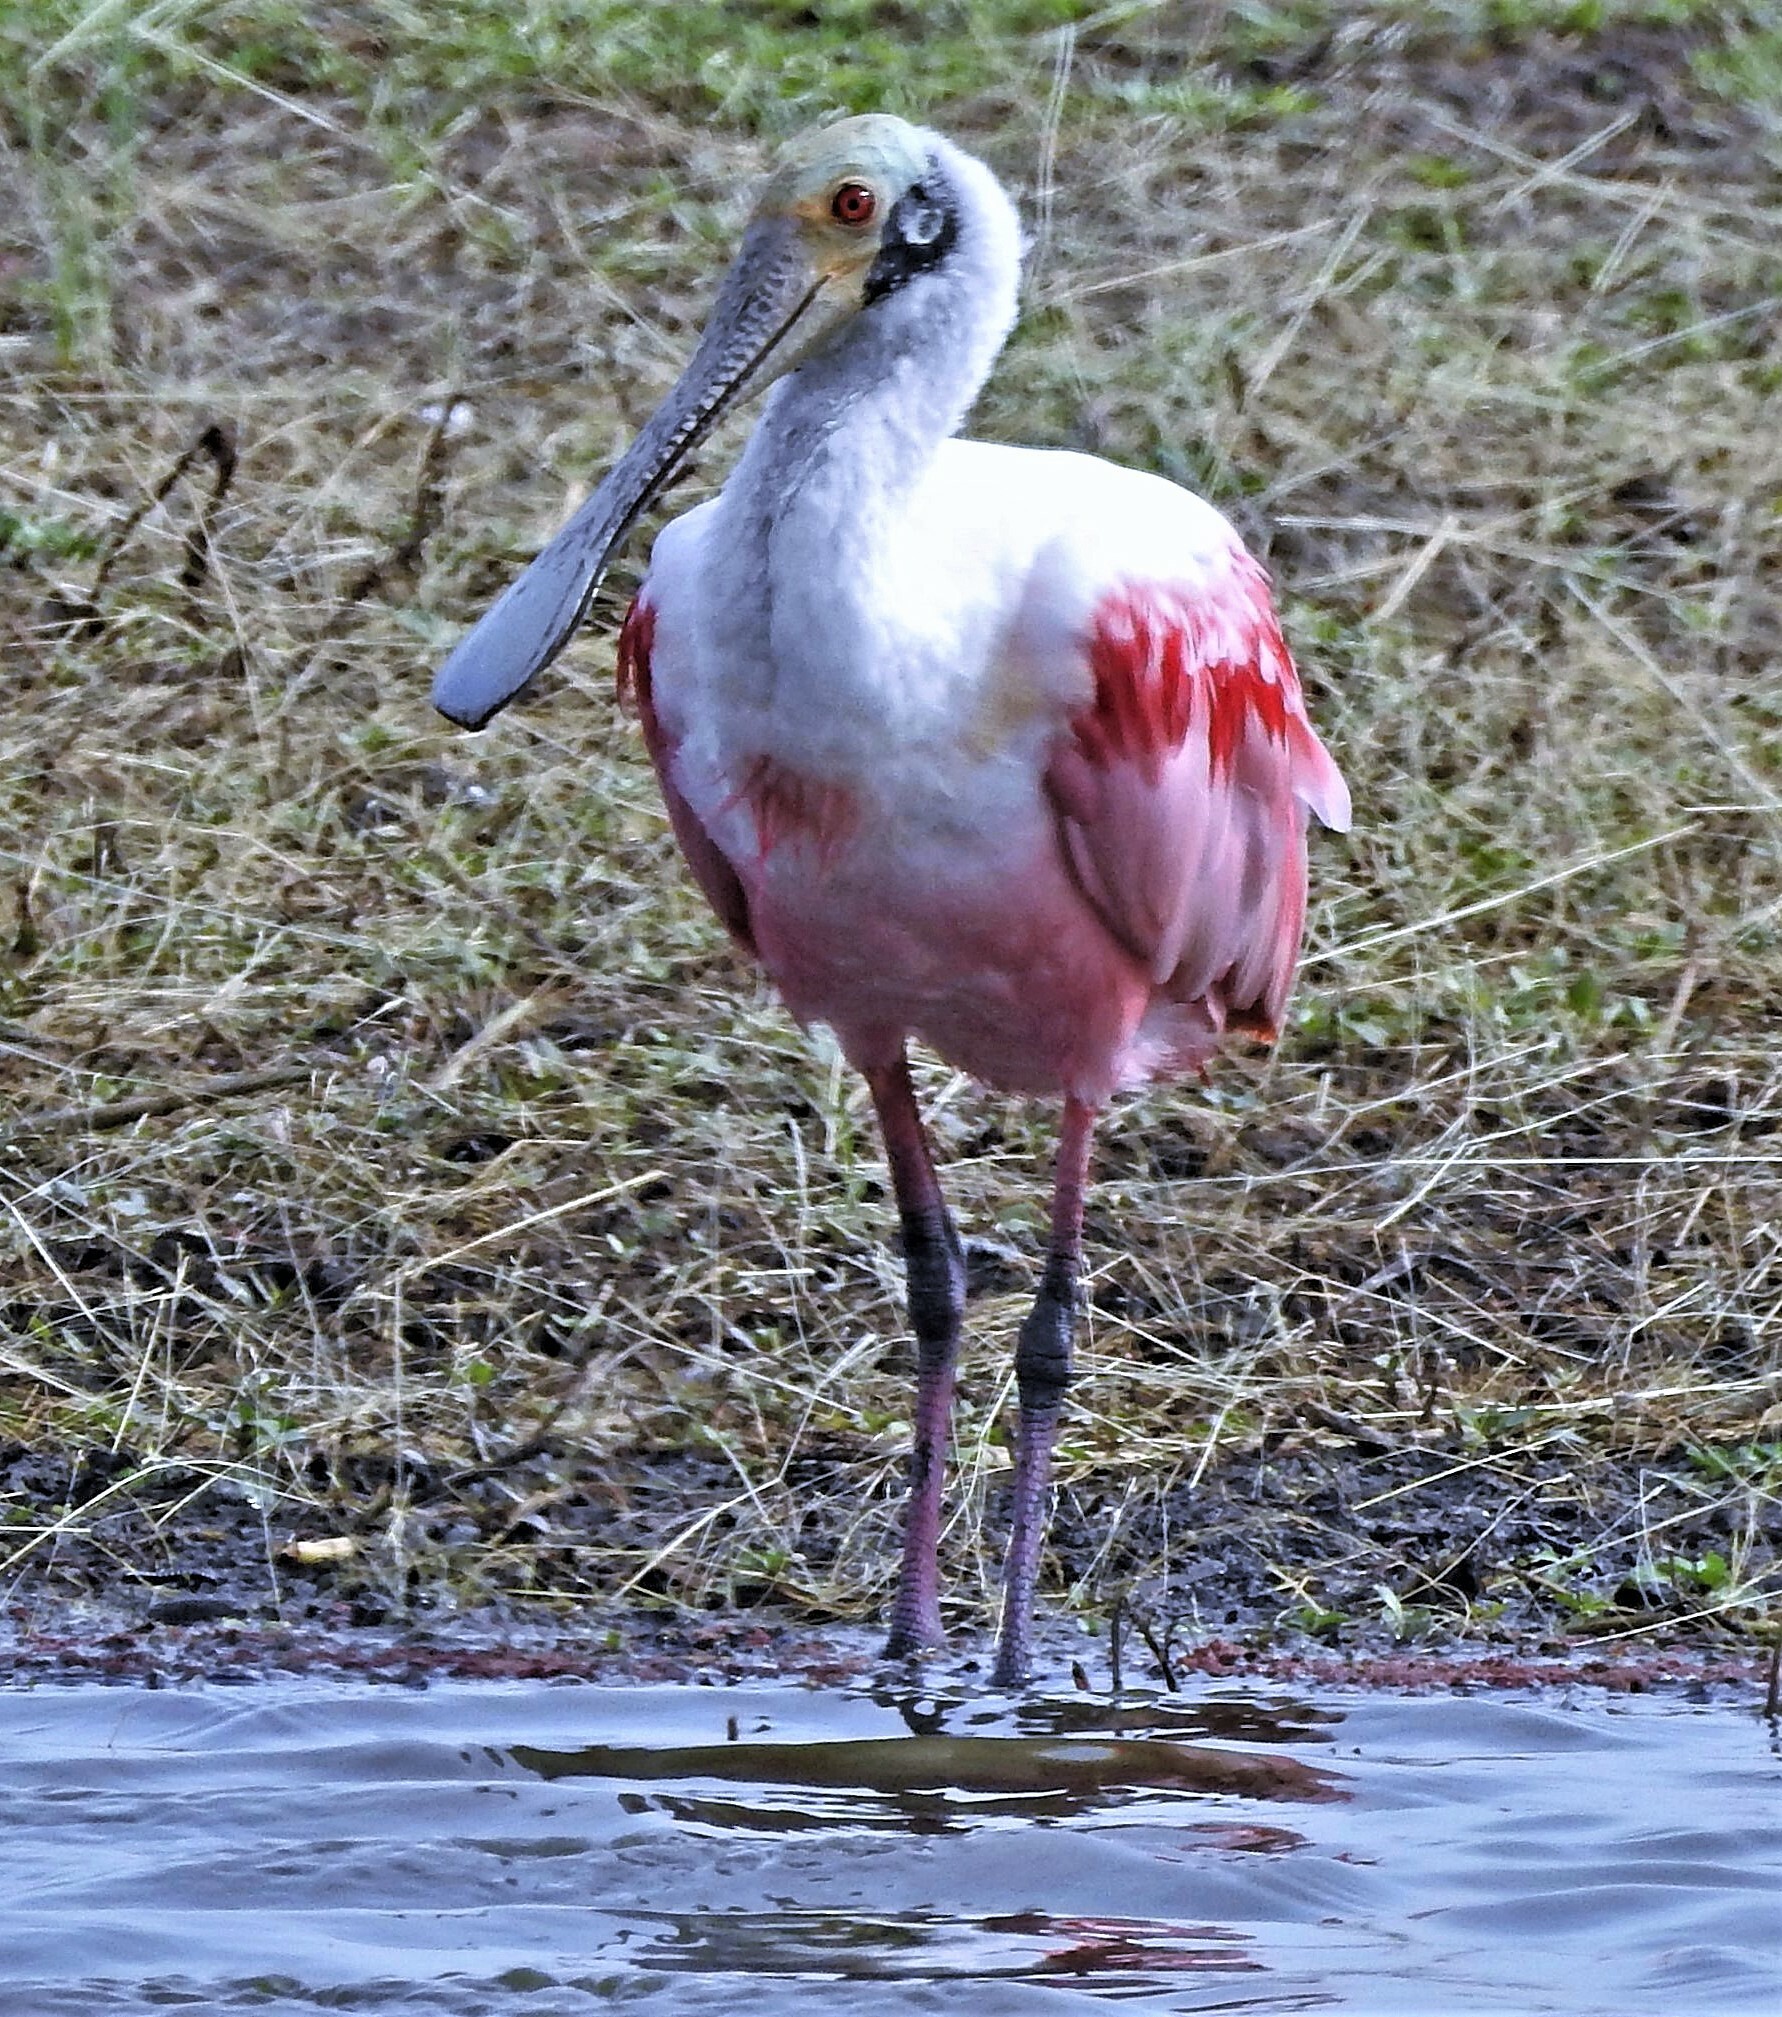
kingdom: Animalia
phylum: Chordata
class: Aves
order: Pelecaniformes
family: Threskiornithidae
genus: Platalea
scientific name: Platalea ajaja
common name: Roseate spoonbill
